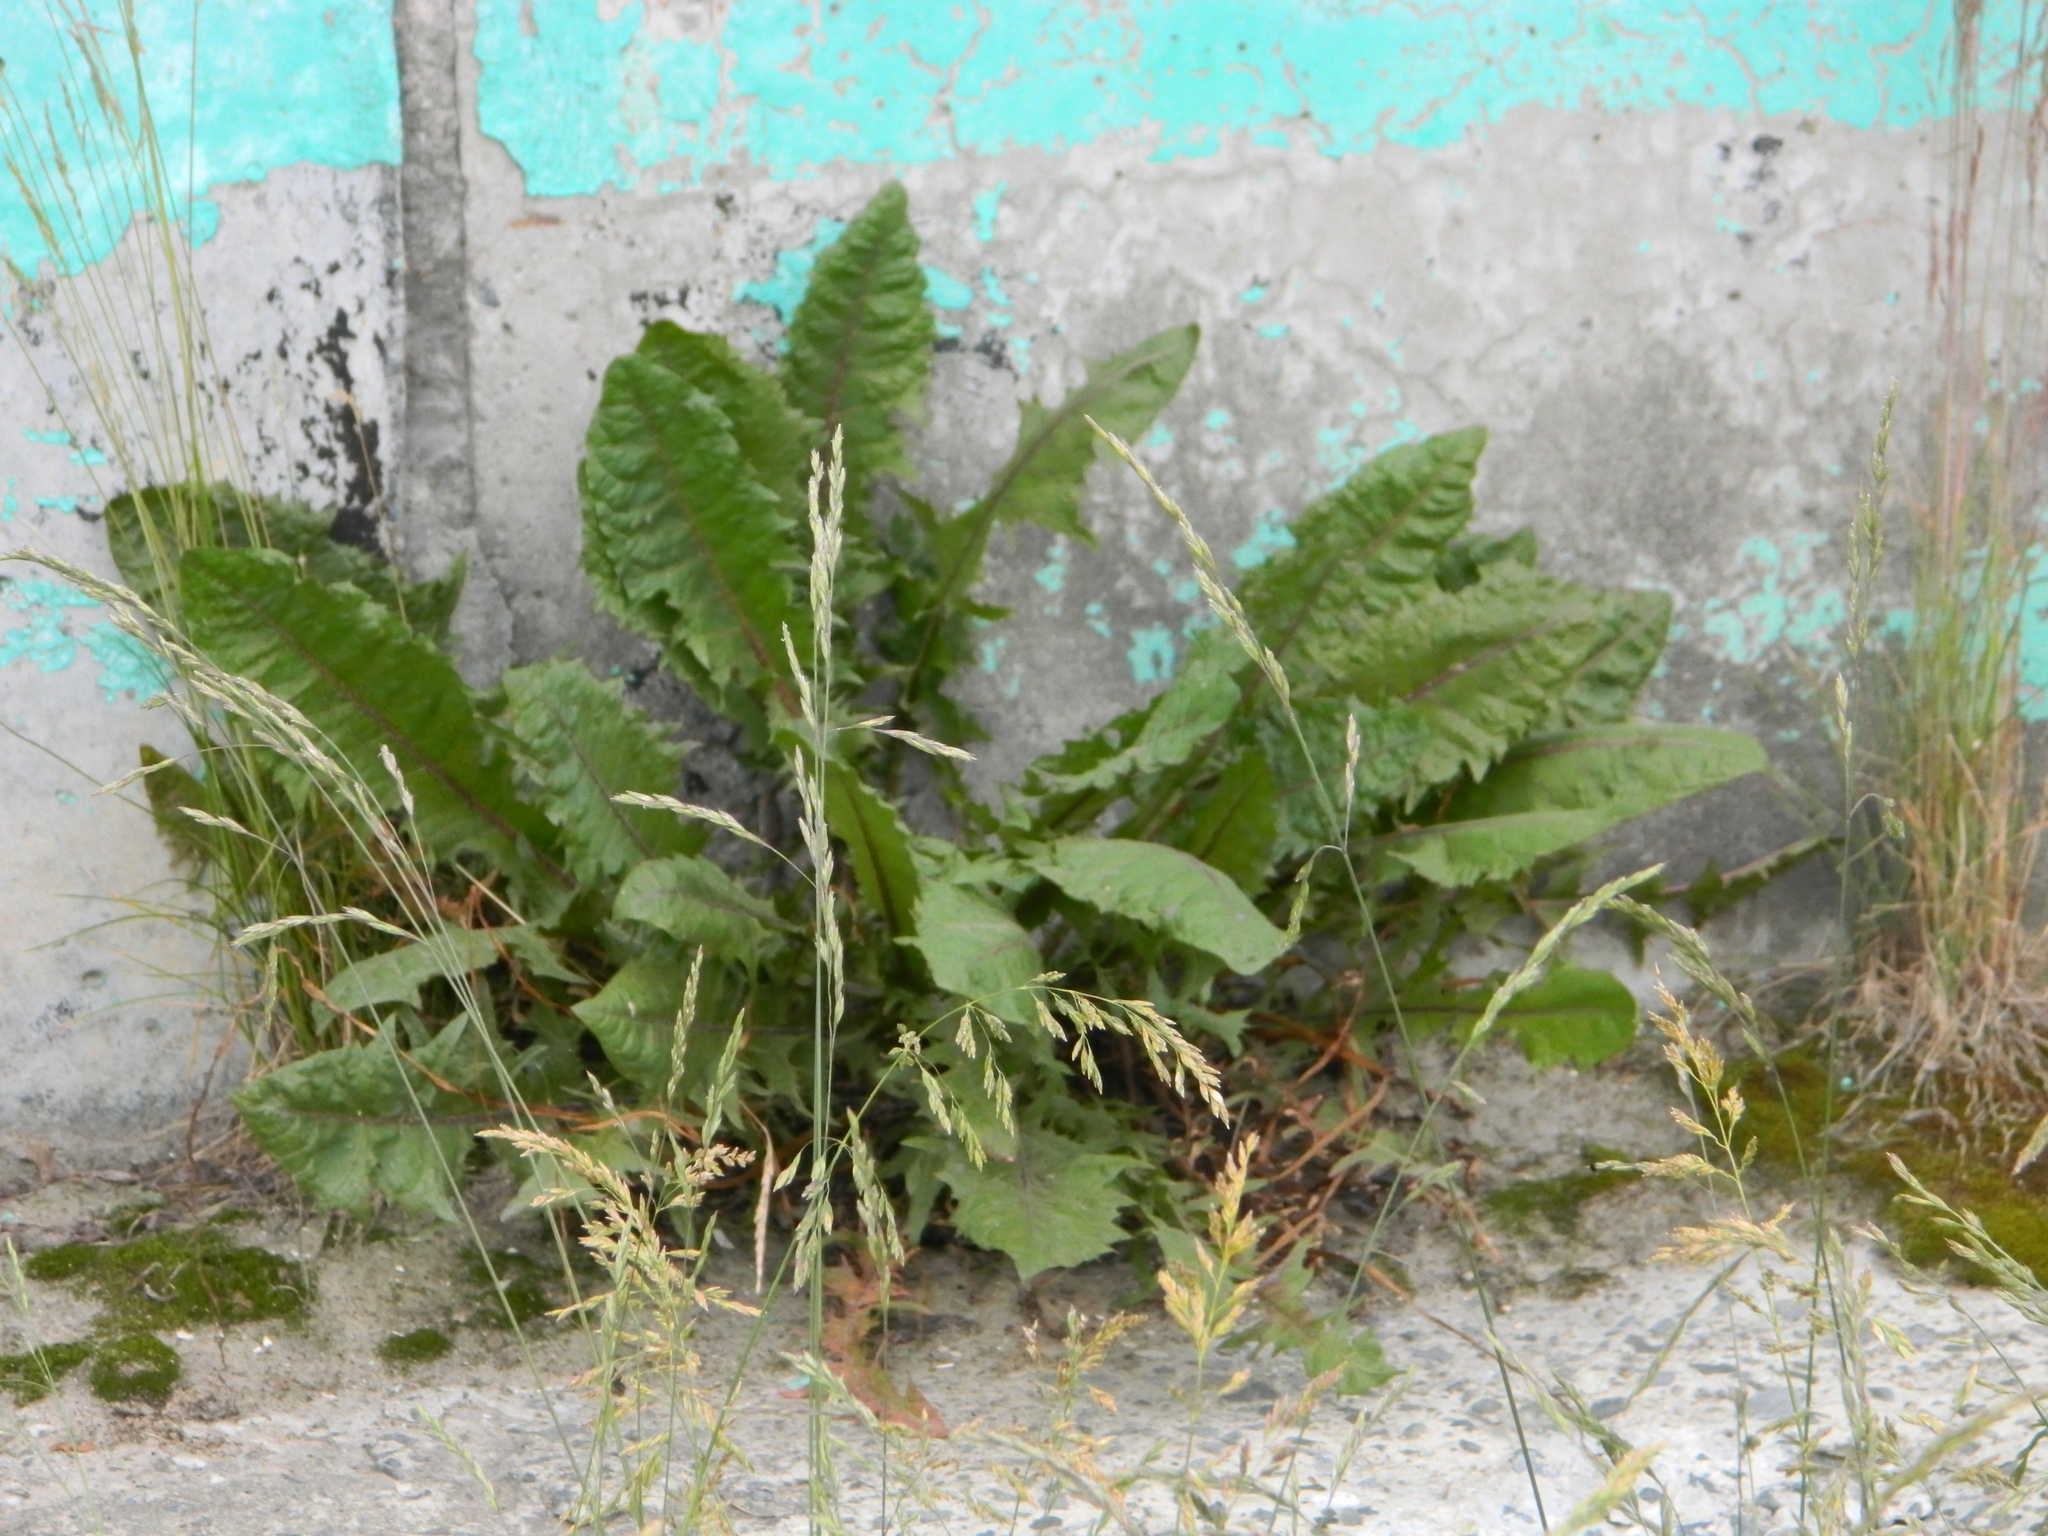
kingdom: Plantae
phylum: Tracheophyta
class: Magnoliopsida
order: Asterales
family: Asteraceae
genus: Taraxacum
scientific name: Taraxacum officinale
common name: Common dandelion
